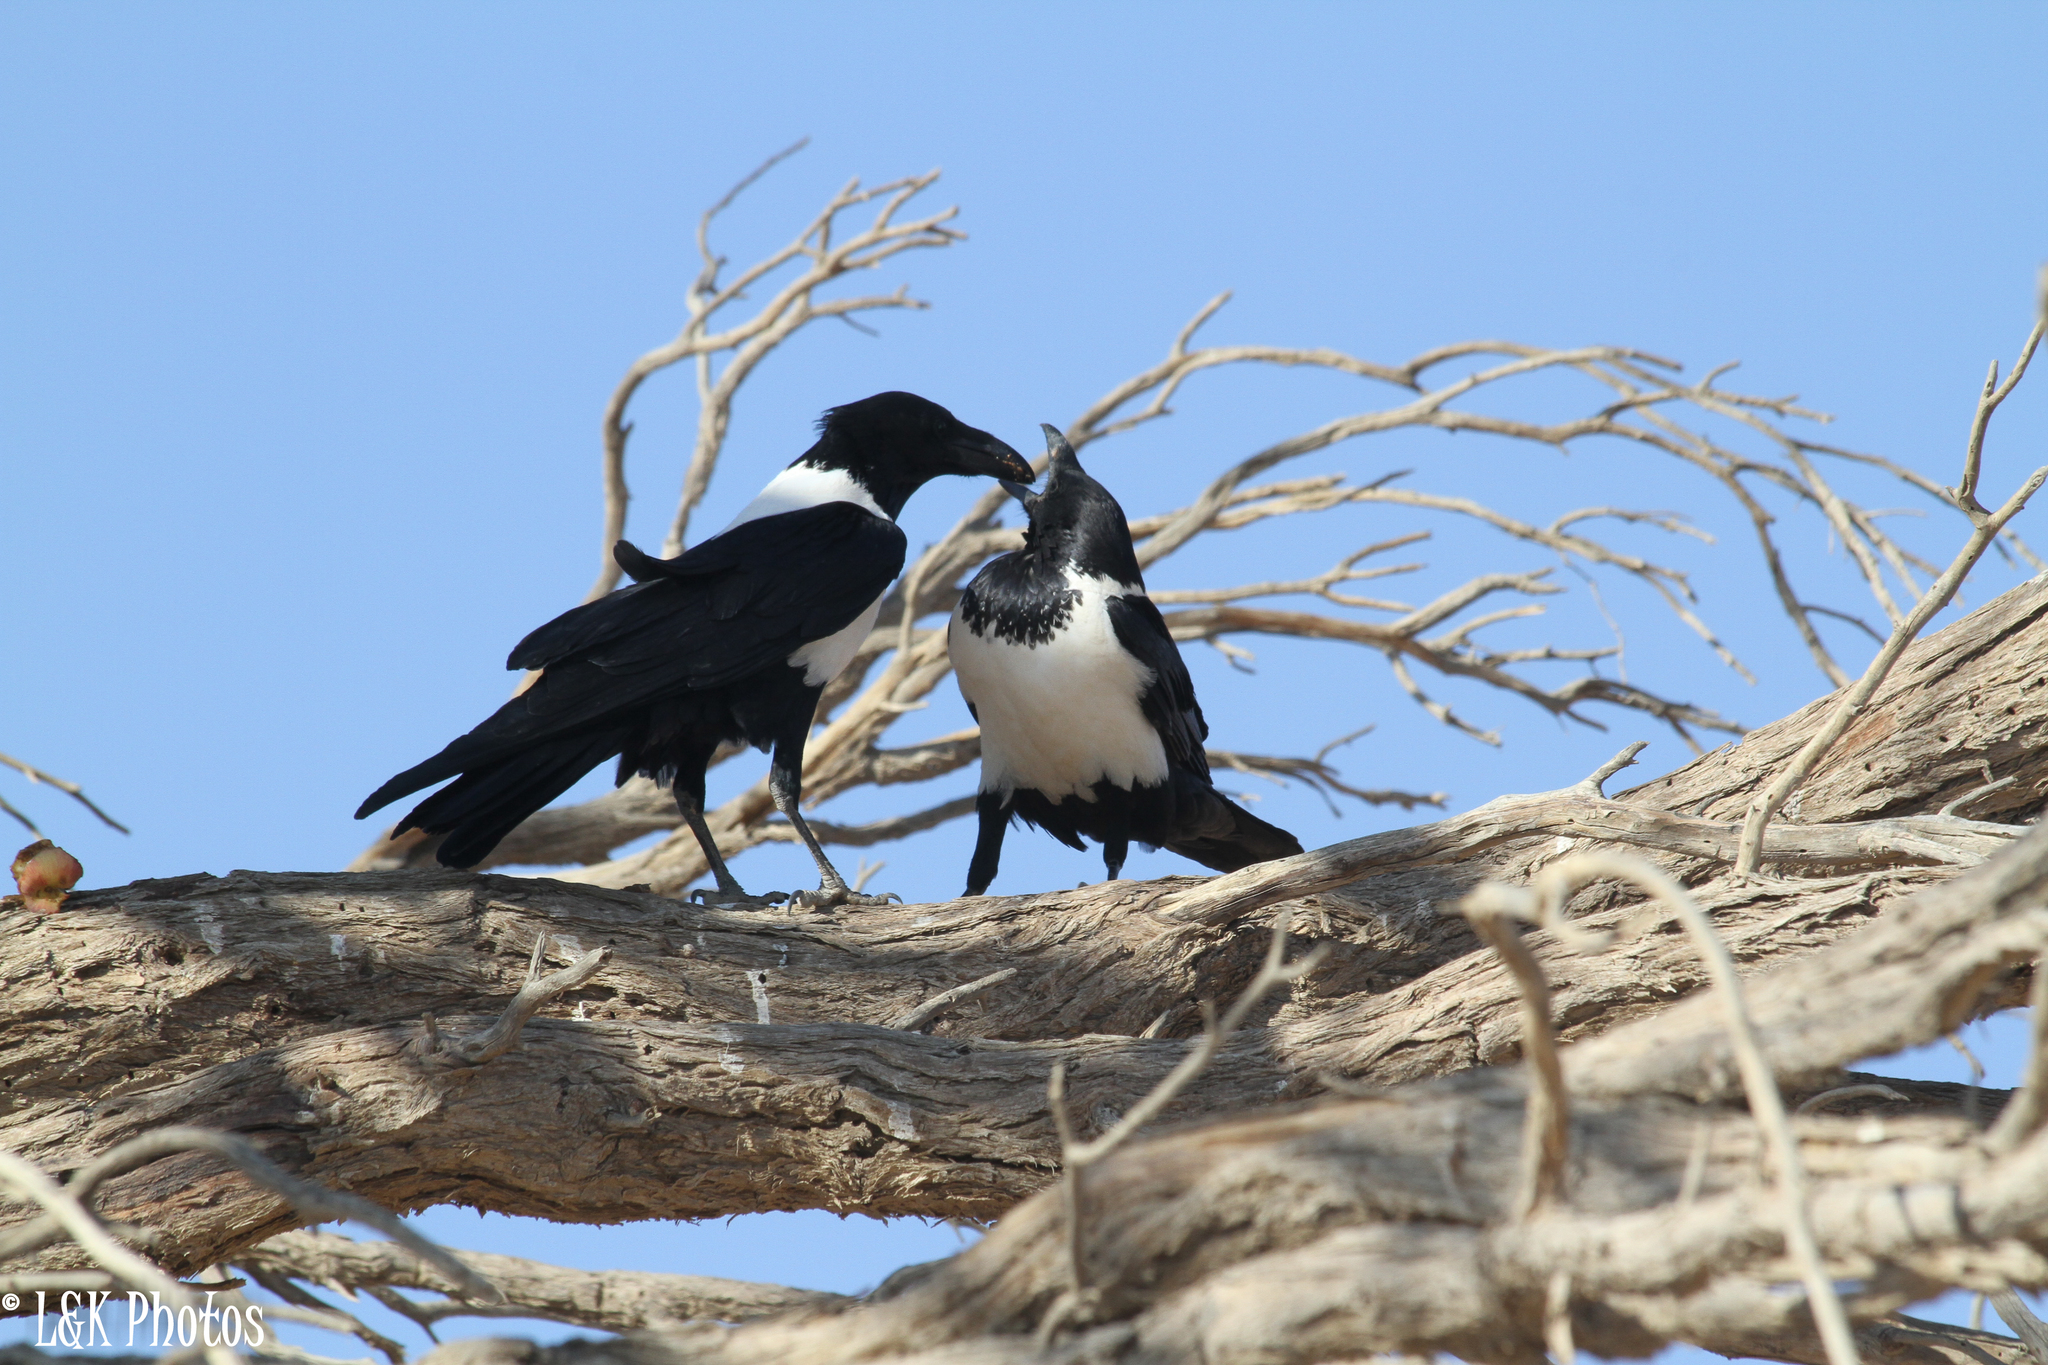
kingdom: Animalia
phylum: Chordata
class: Aves
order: Passeriformes
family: Corvidae
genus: Corvus
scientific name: Corvus albus
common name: Pied crow
